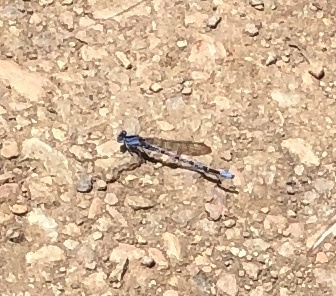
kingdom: Animalia
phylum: Arthropoda
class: Insecta
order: Odonata
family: Coenagrionidae
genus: Argia
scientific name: Argia vivida
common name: Vivid dancer
